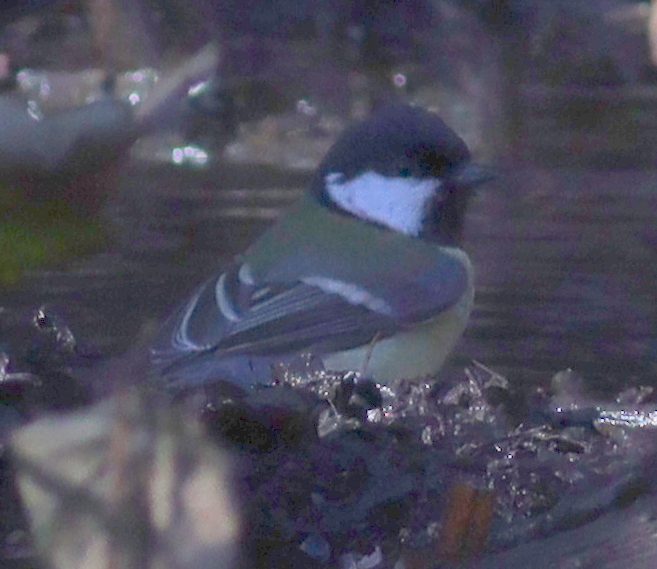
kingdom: Animalia
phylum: Chordata
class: Aves
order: Passeriformes
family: Paridae
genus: Parus
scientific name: Parus major
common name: Great tit
